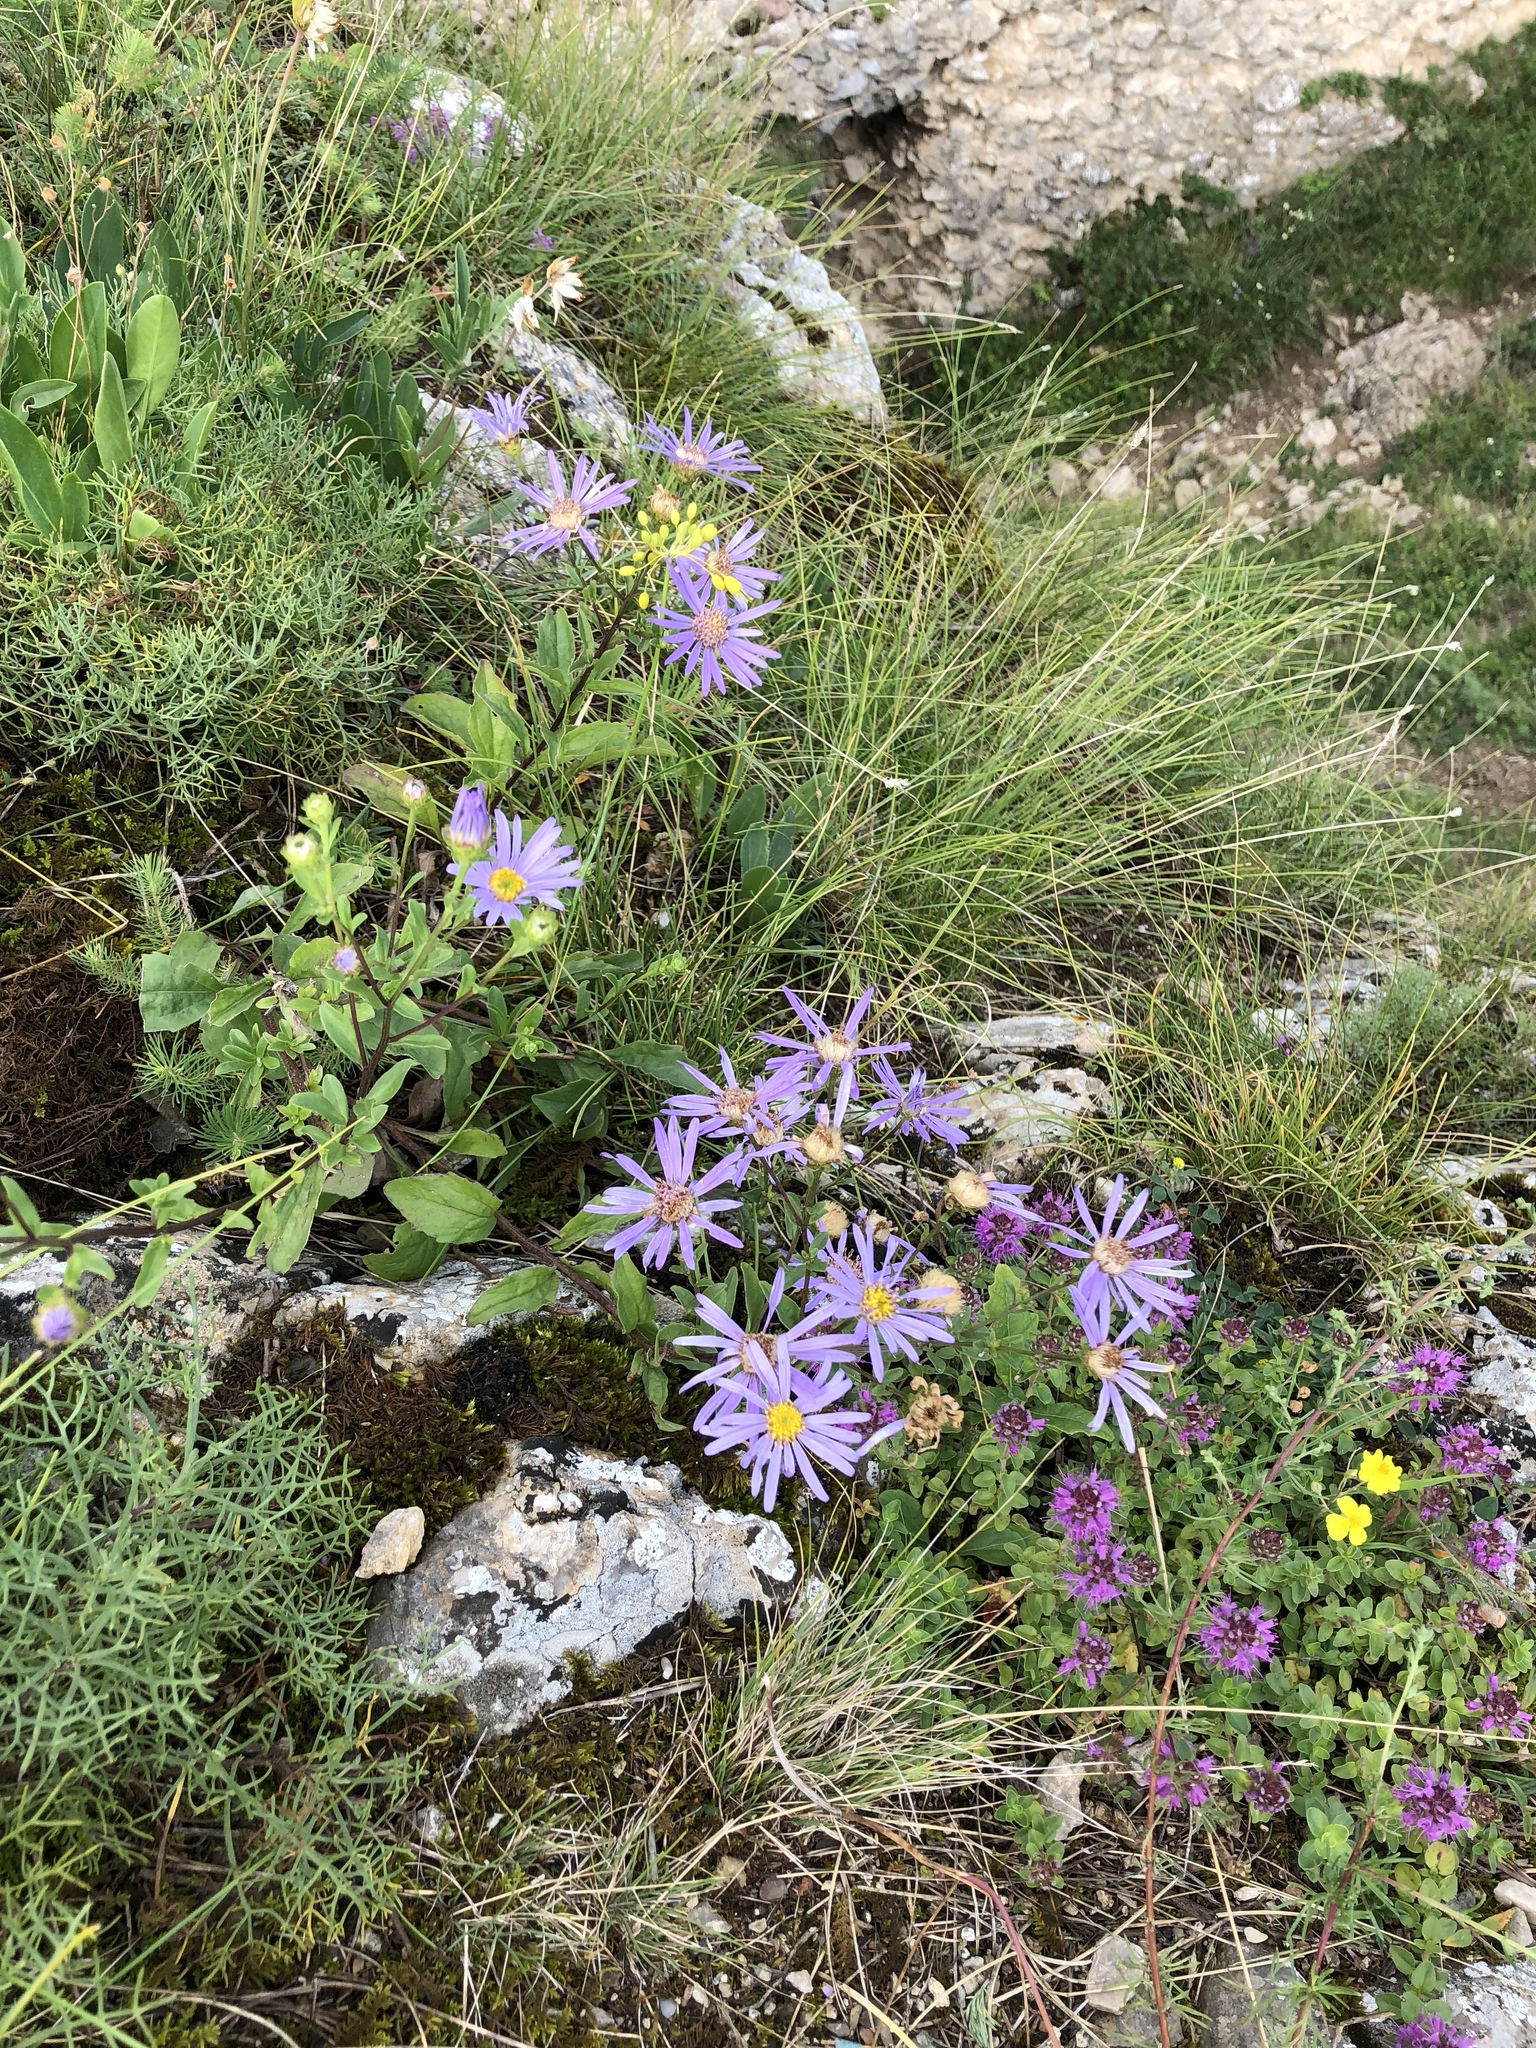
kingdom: Plantae
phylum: Tracheophyta
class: Magnoliopsida
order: Asterales
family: Asteraceae
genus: Aster
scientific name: Aster amellus
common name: European michaelmas daisy
